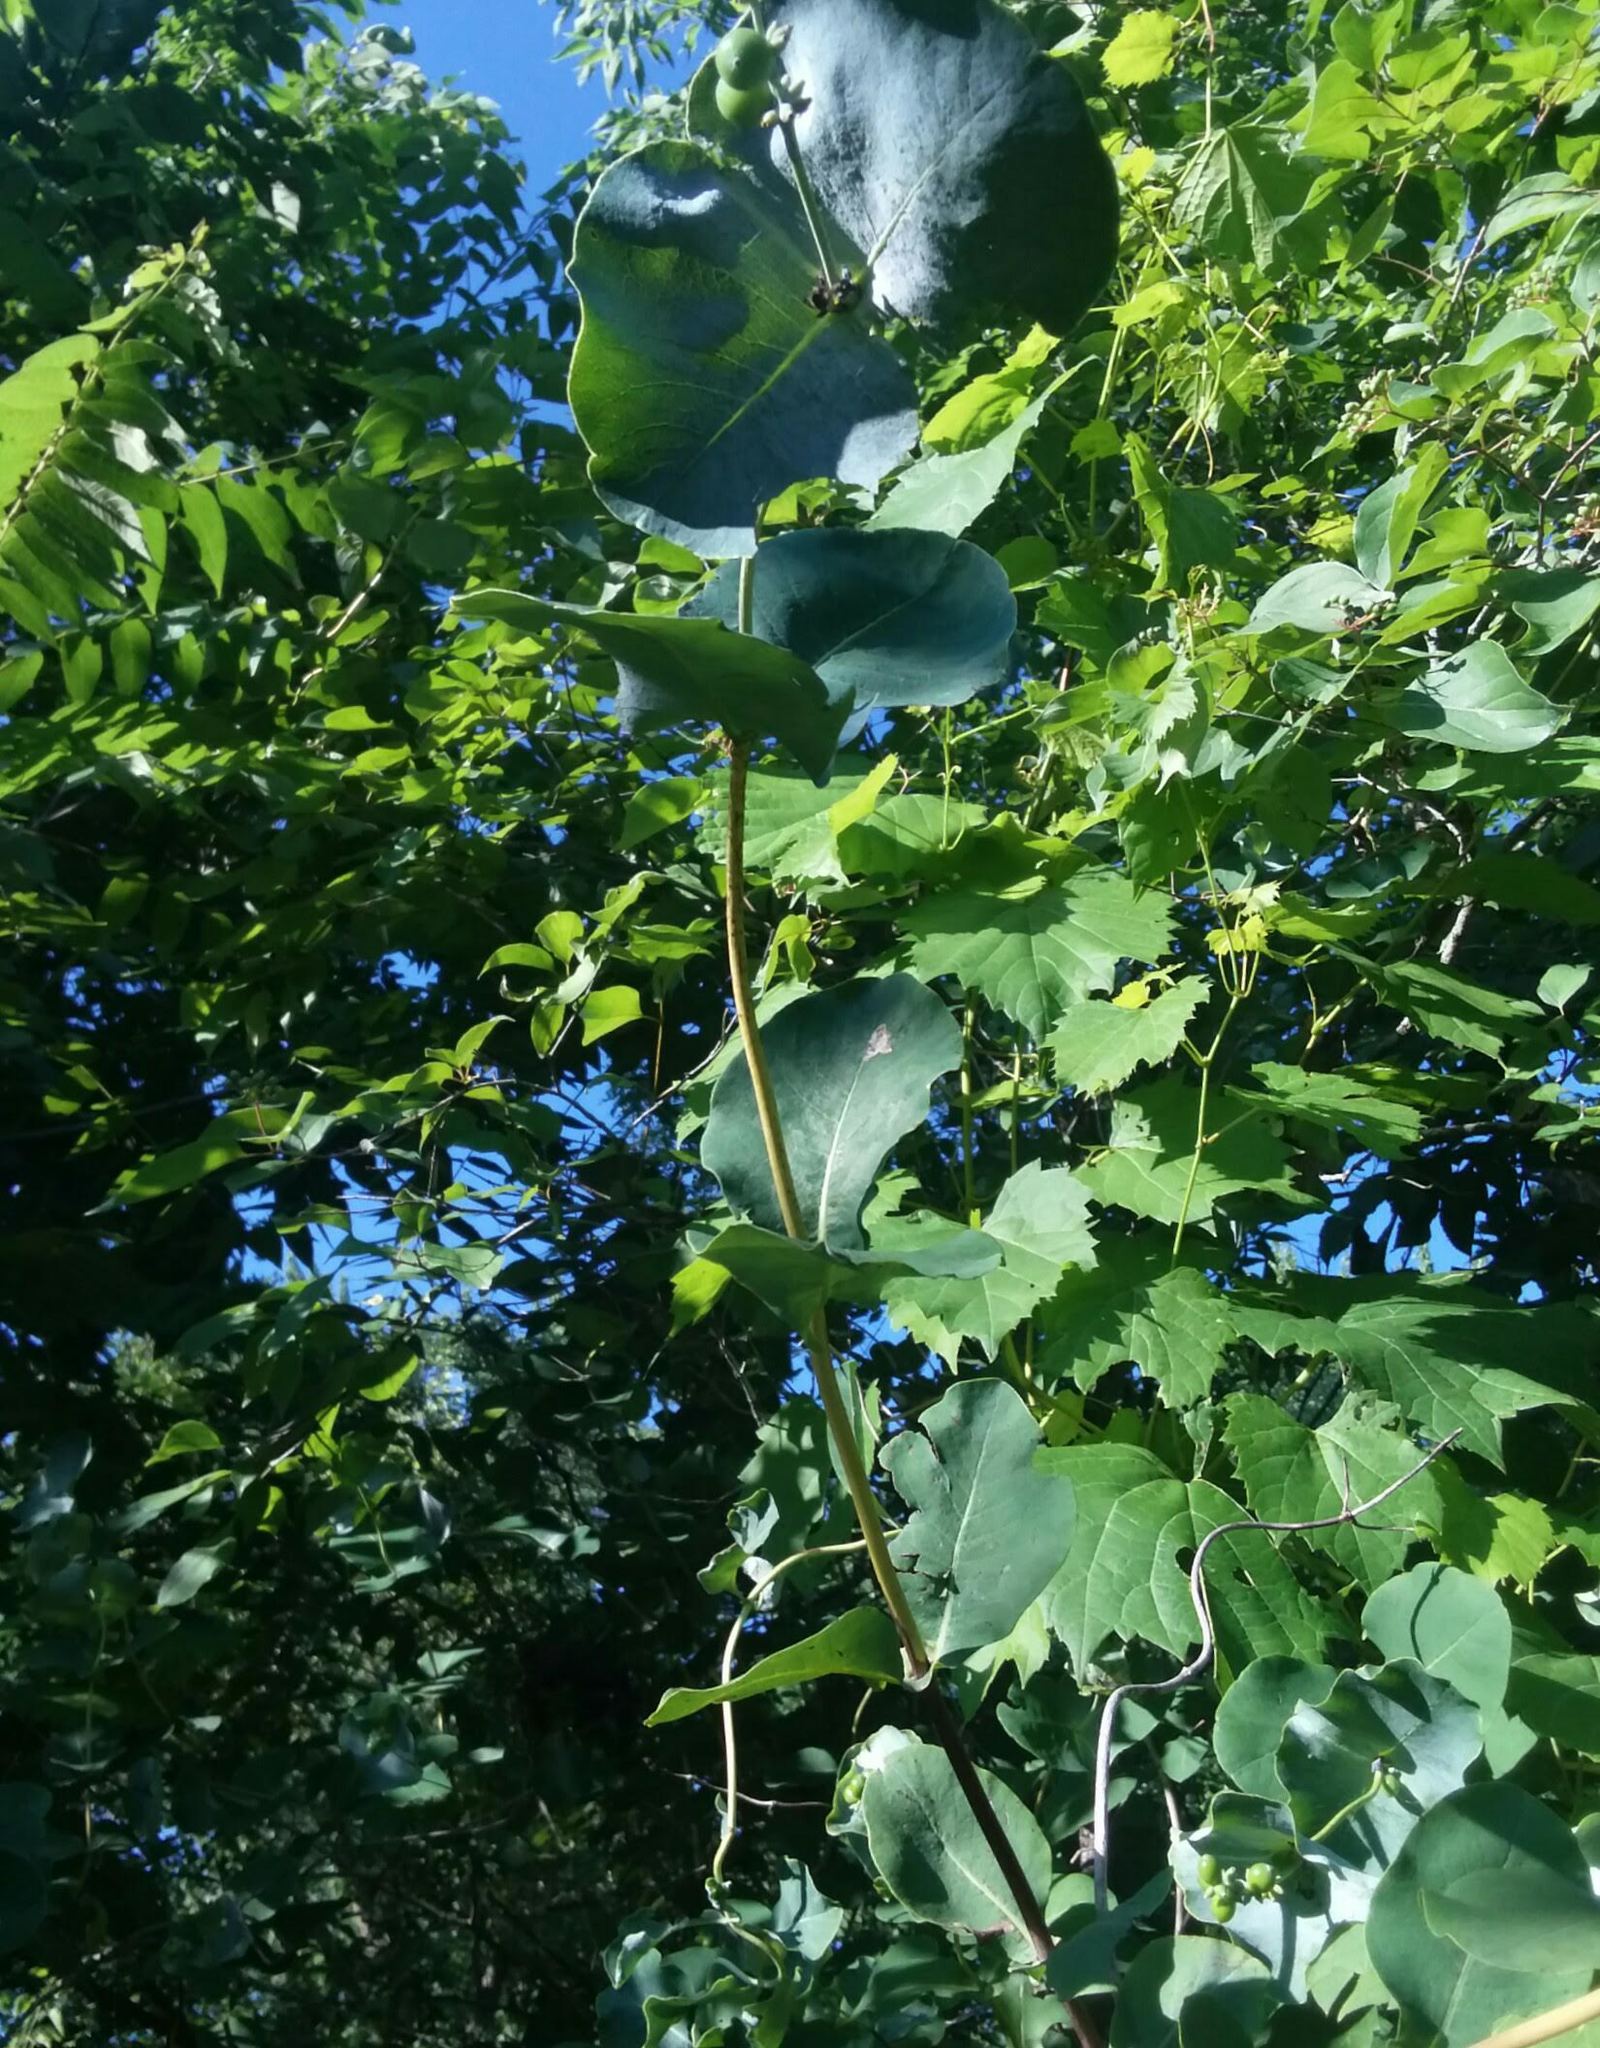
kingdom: Plantae
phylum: Tracheophyta
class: Magnoliopsida
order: Dipsacales
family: Caprifoliaceae
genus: Lonicera
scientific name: Lonicera reticulata
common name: Grape honeysuckle
